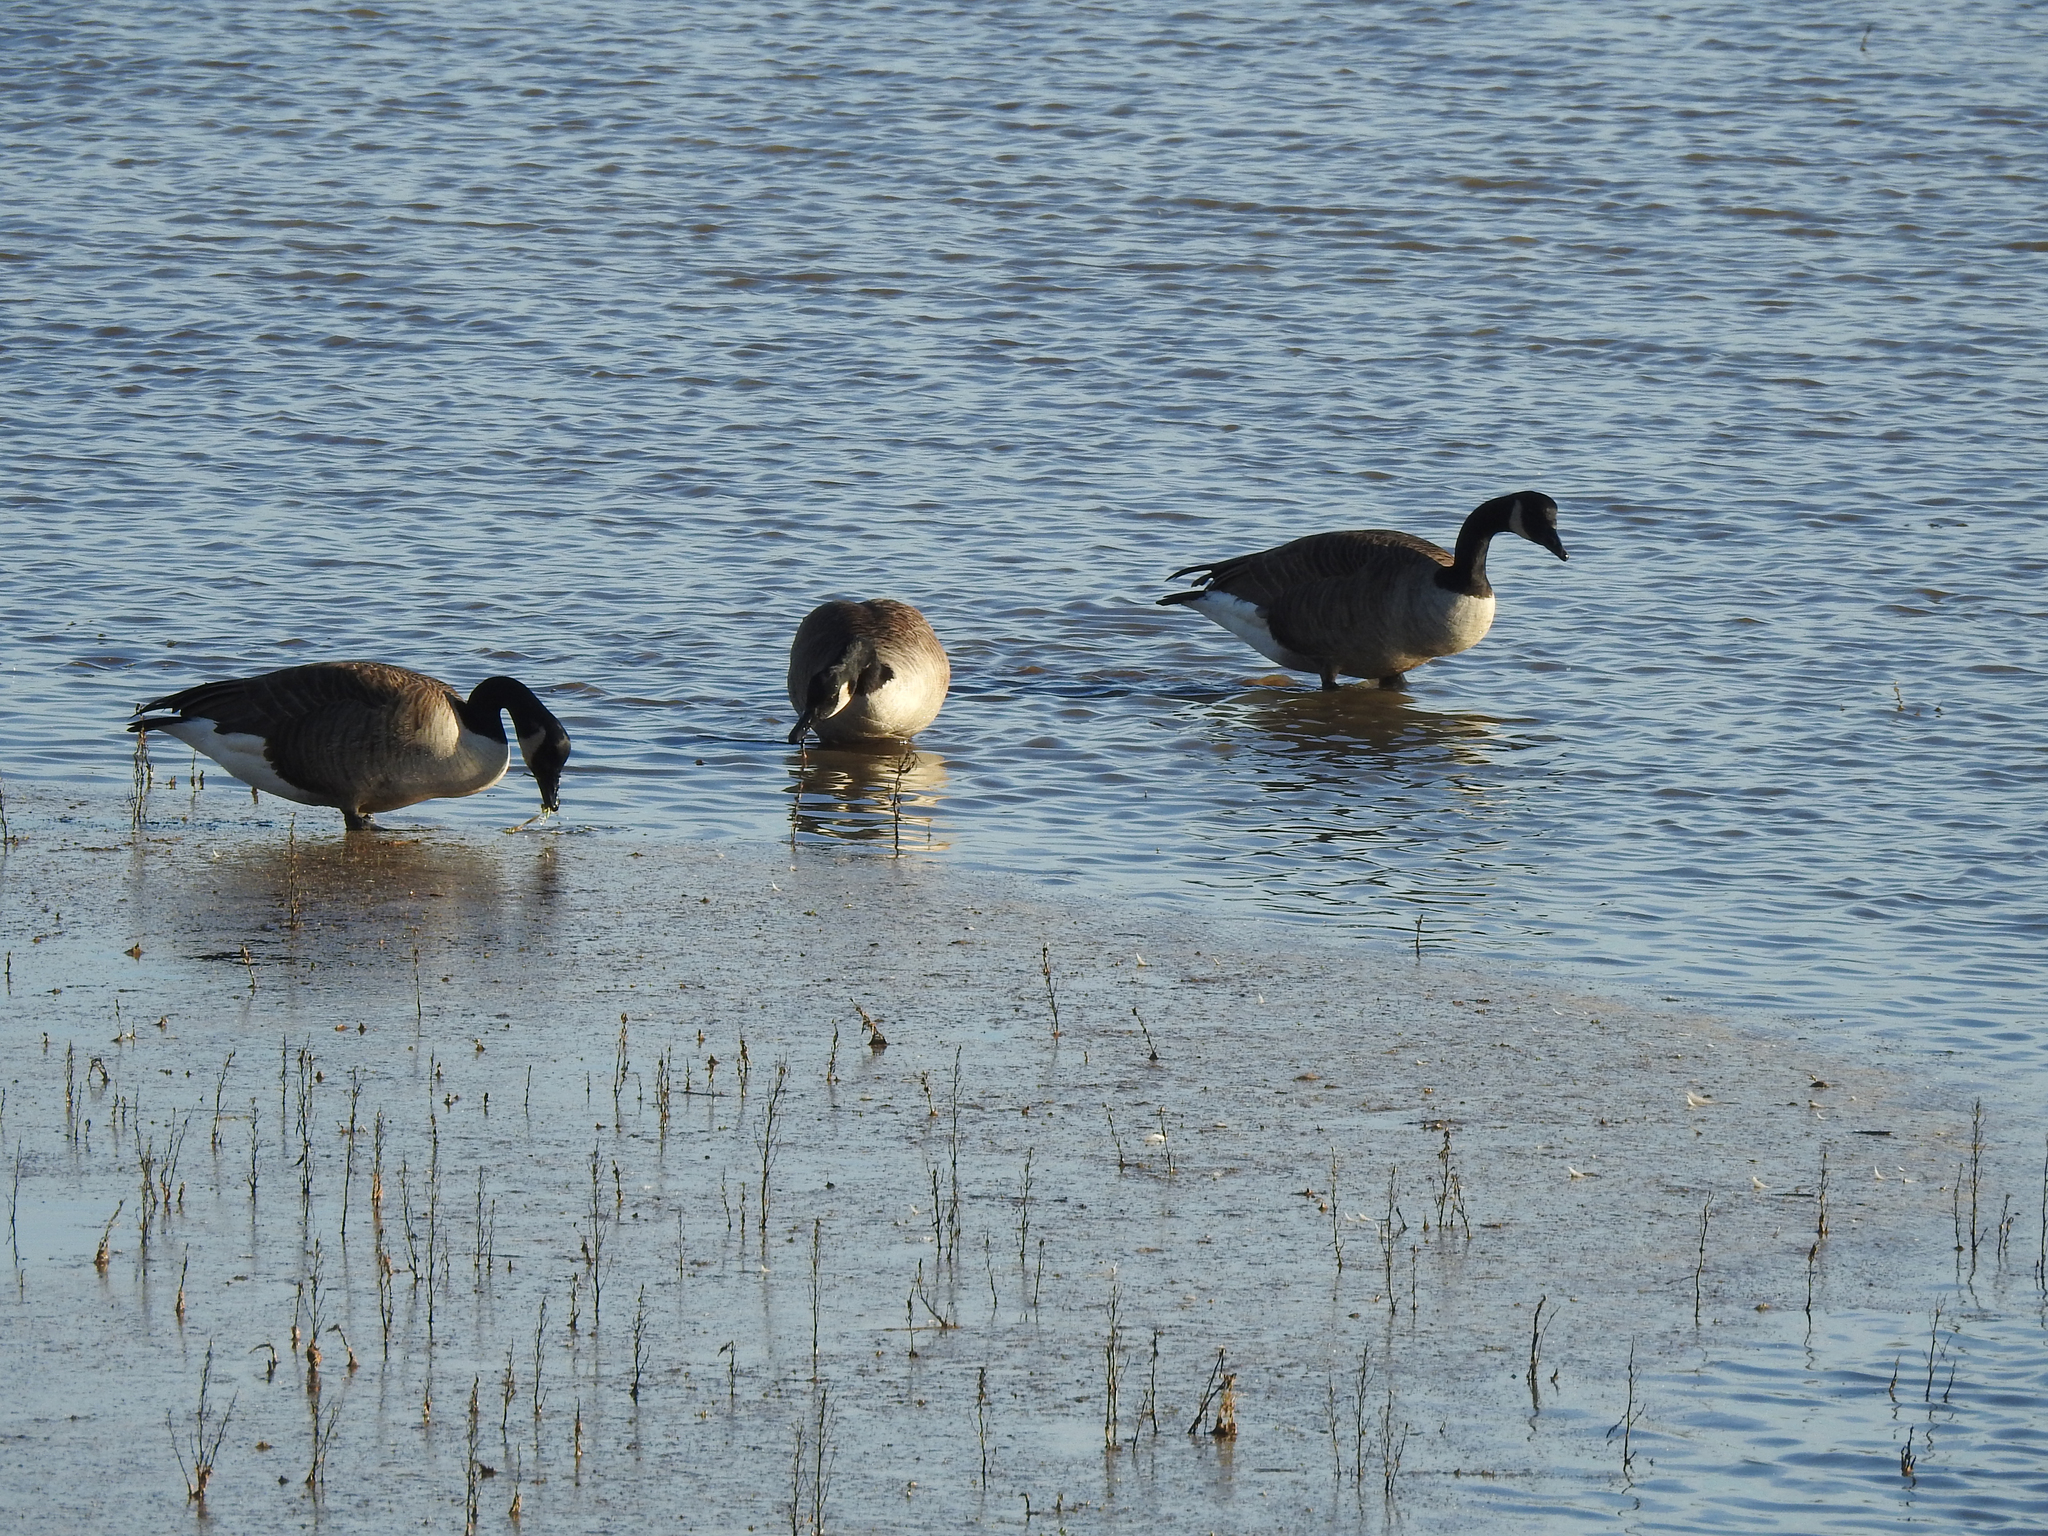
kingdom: Animalia
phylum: Chordata
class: Aves
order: Anseriformes
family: Anatidae
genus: Branta
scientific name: Branta canadensis
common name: Canada goose
